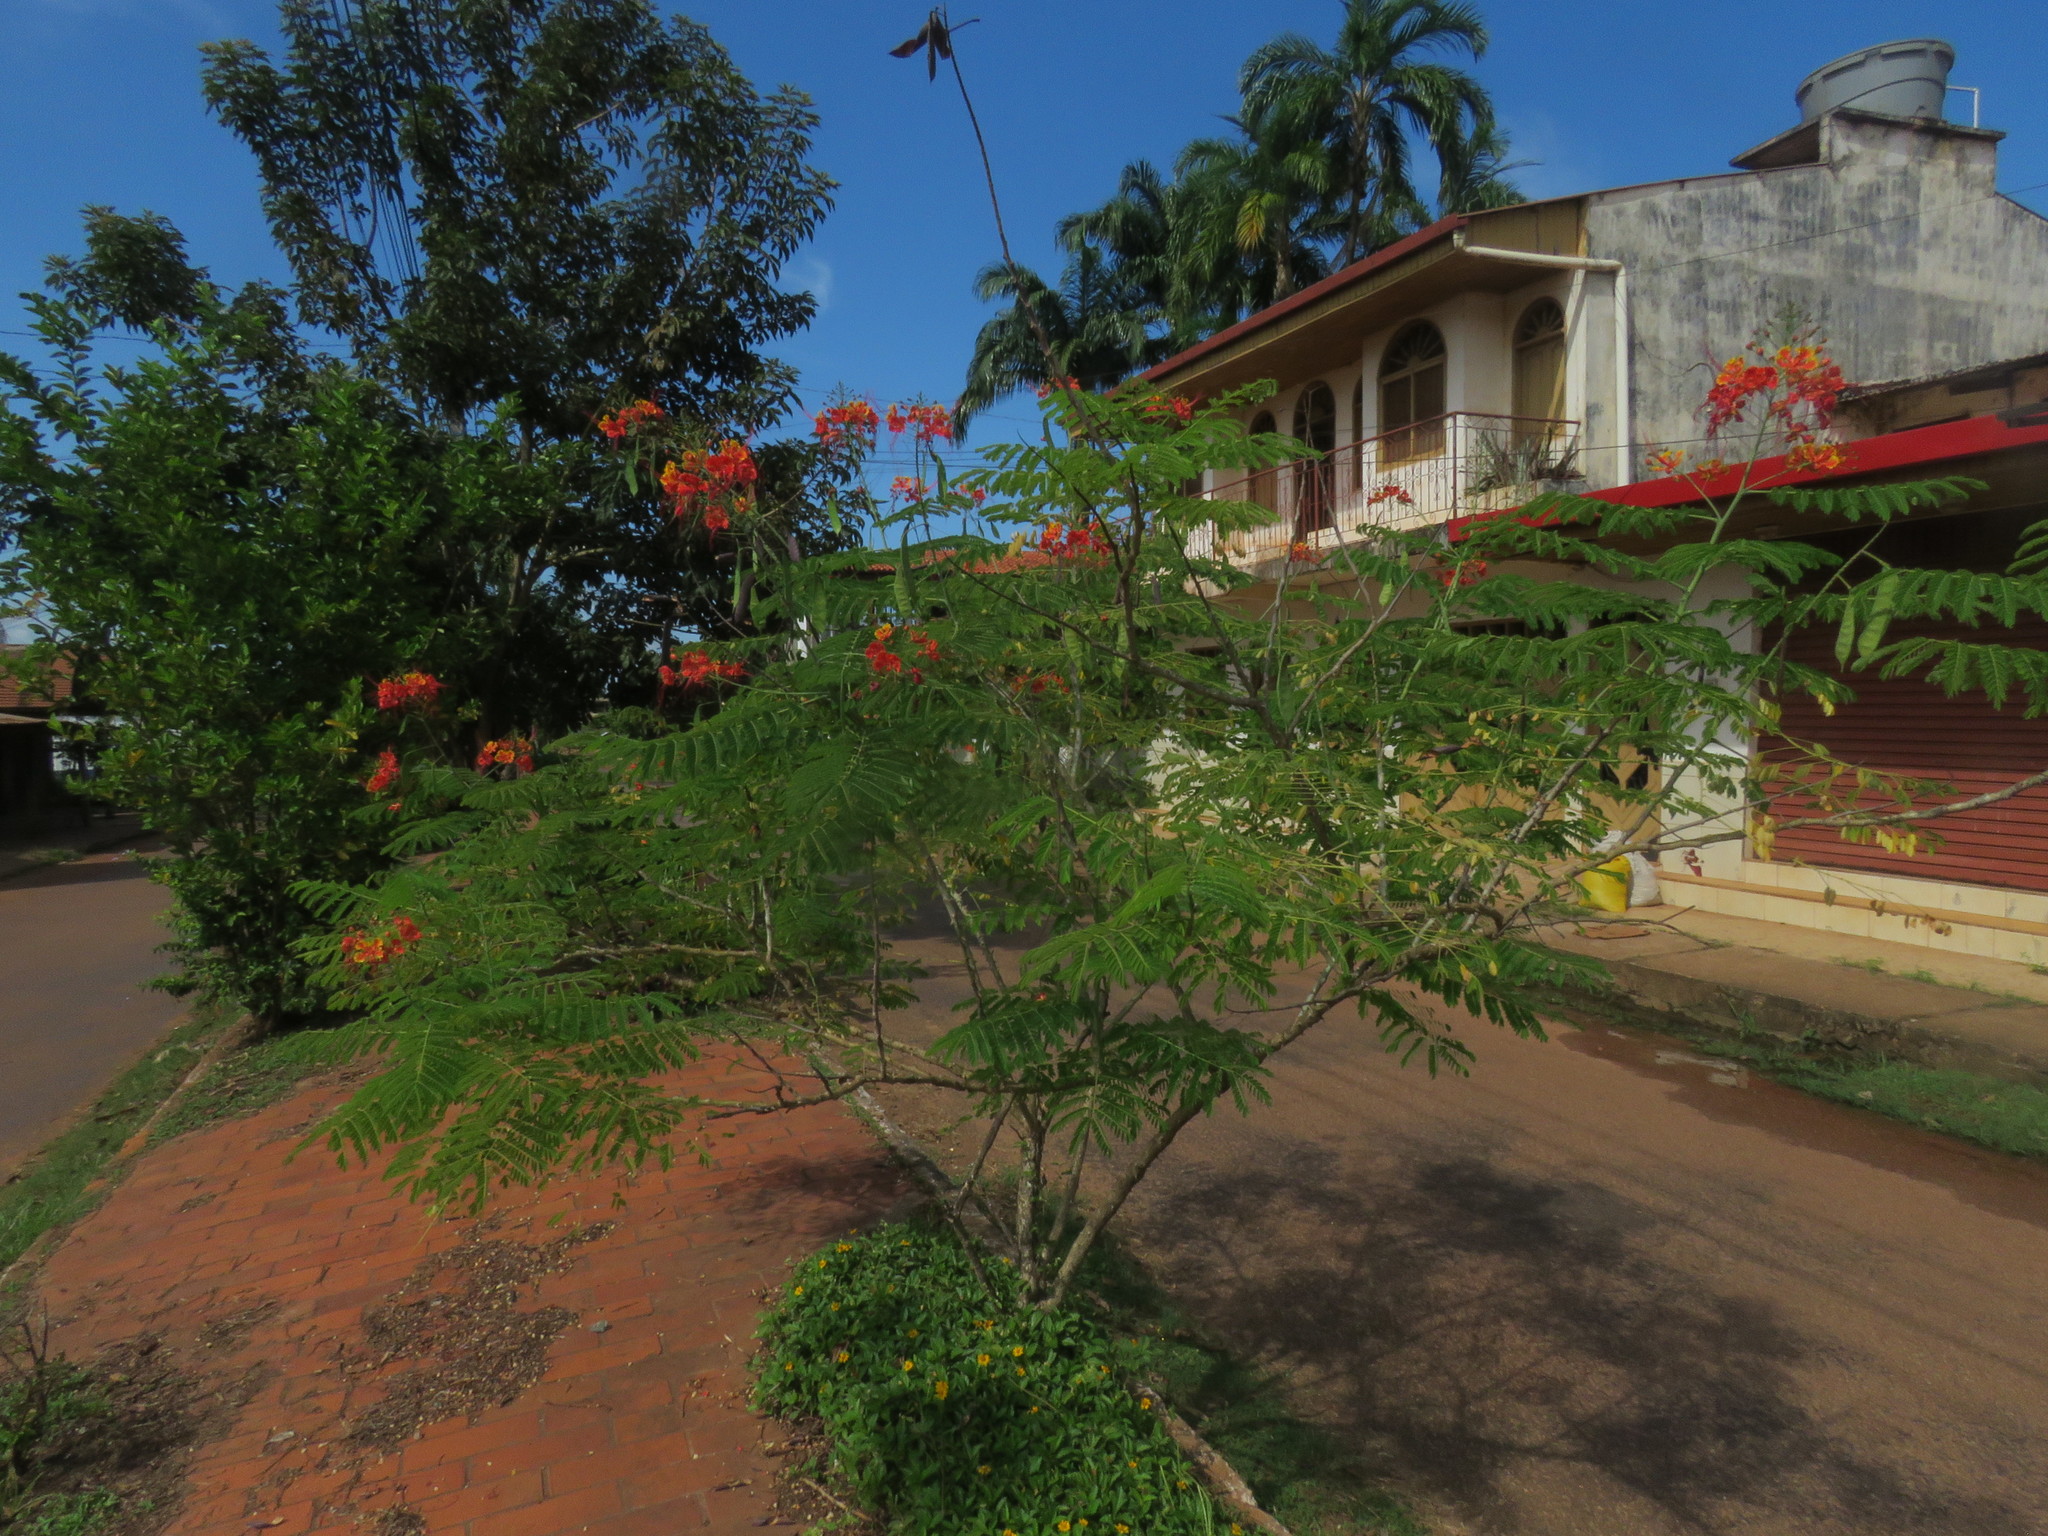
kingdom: Plantae
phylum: Tracheophyta
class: Magnoliopsida
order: Fabales
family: Fabaceae
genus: Caesalpinia
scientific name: Caesalpinia pulcherrima
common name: Pride-of-barbados
